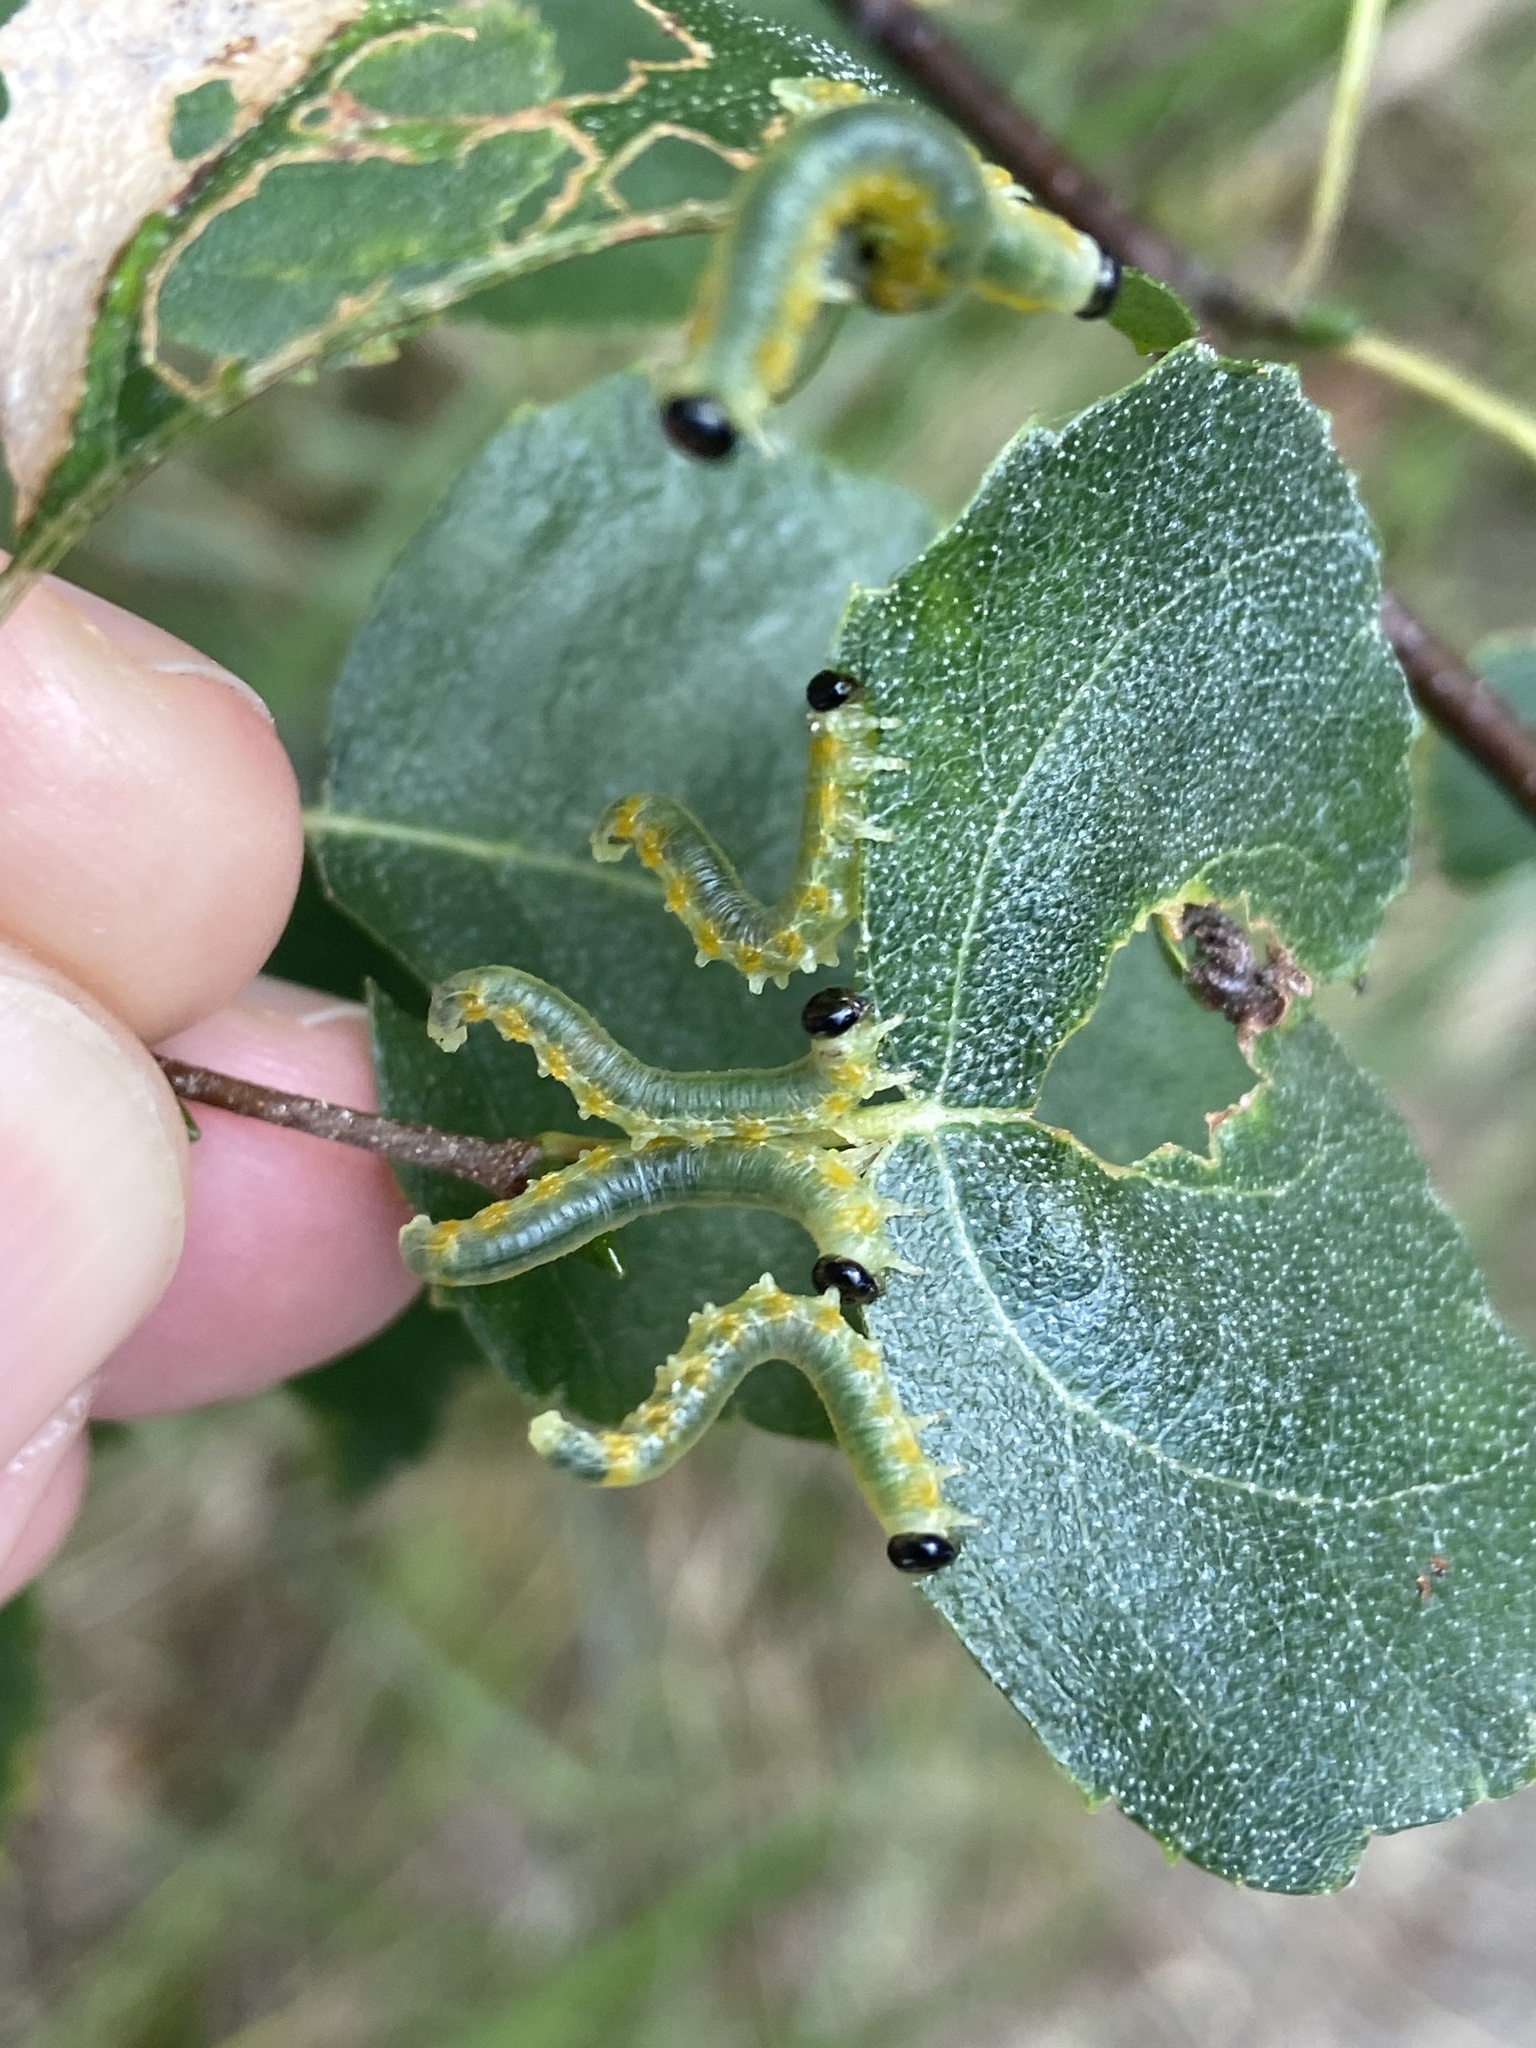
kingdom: Animalia
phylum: Arthropoda
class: Insecta
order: Hymenoptera
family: Tenthredinidae
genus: Pristiphora
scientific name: Pristiphora testacea
